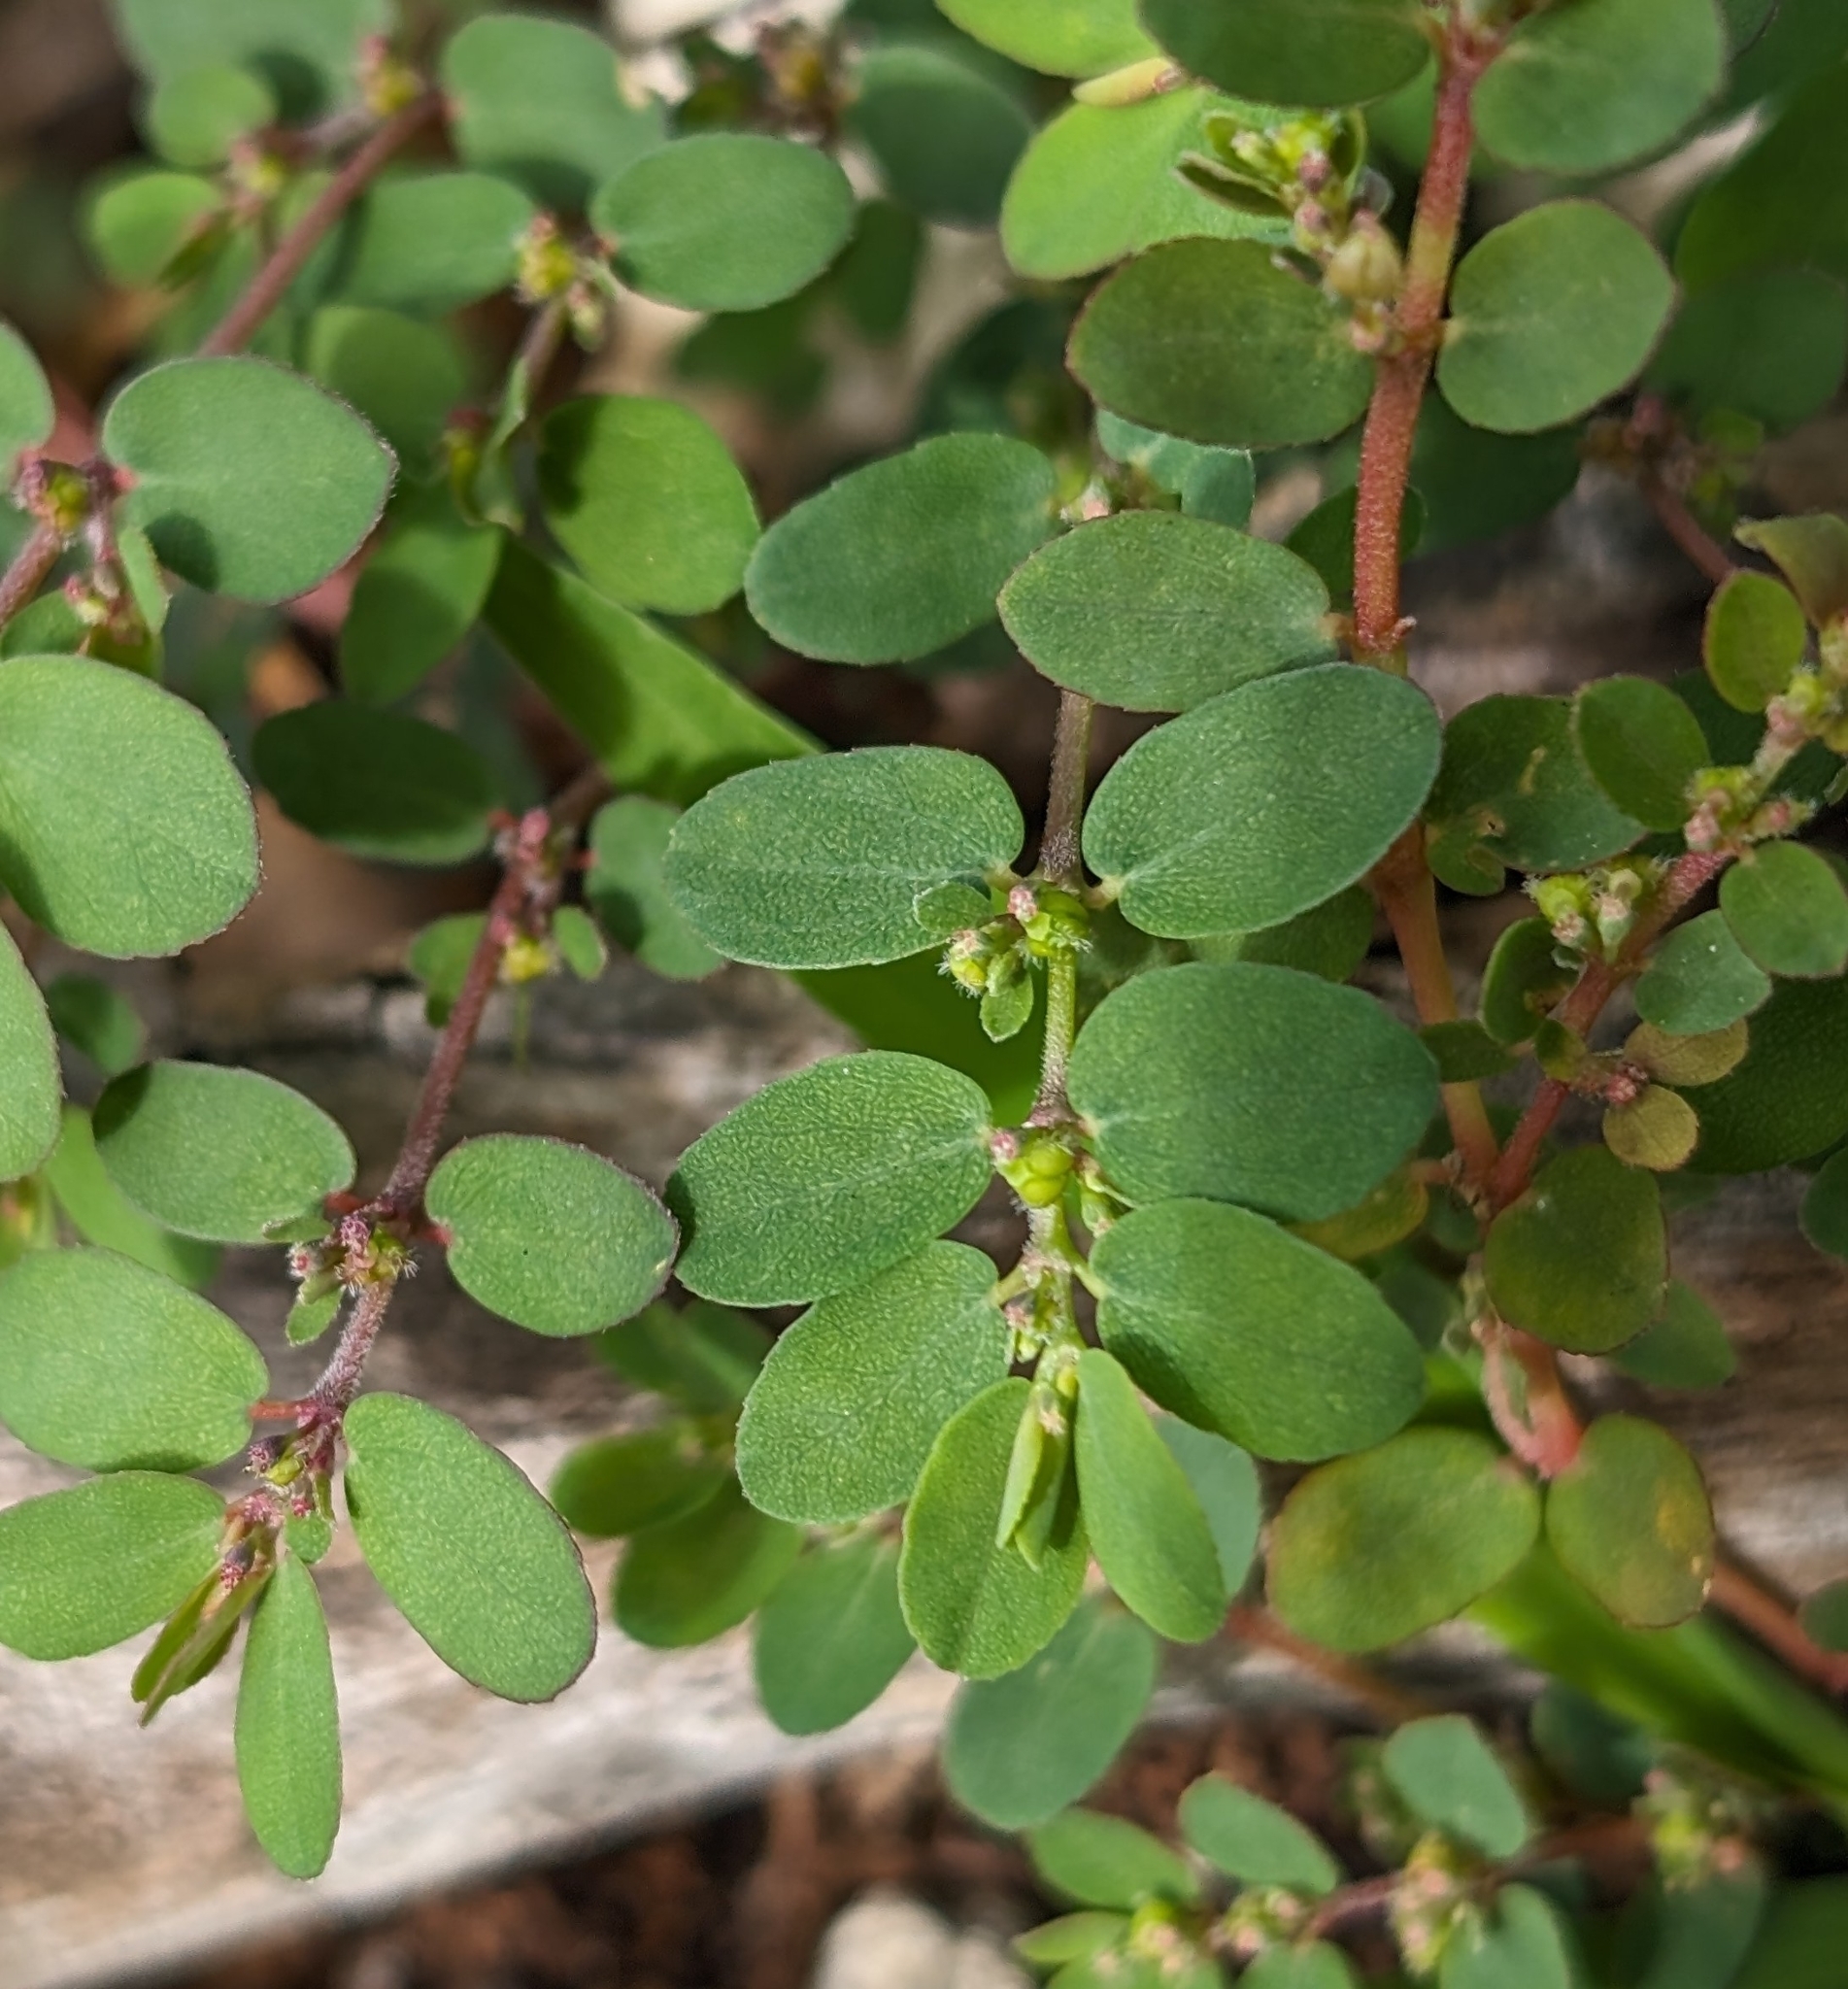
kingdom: Plantae
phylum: Tracheophyta
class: Magnoliopsida
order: Malpighiales
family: Euphorbiaceae
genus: Euphorbia
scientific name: Euphorbia prostrata
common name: Prostrate sandmat
